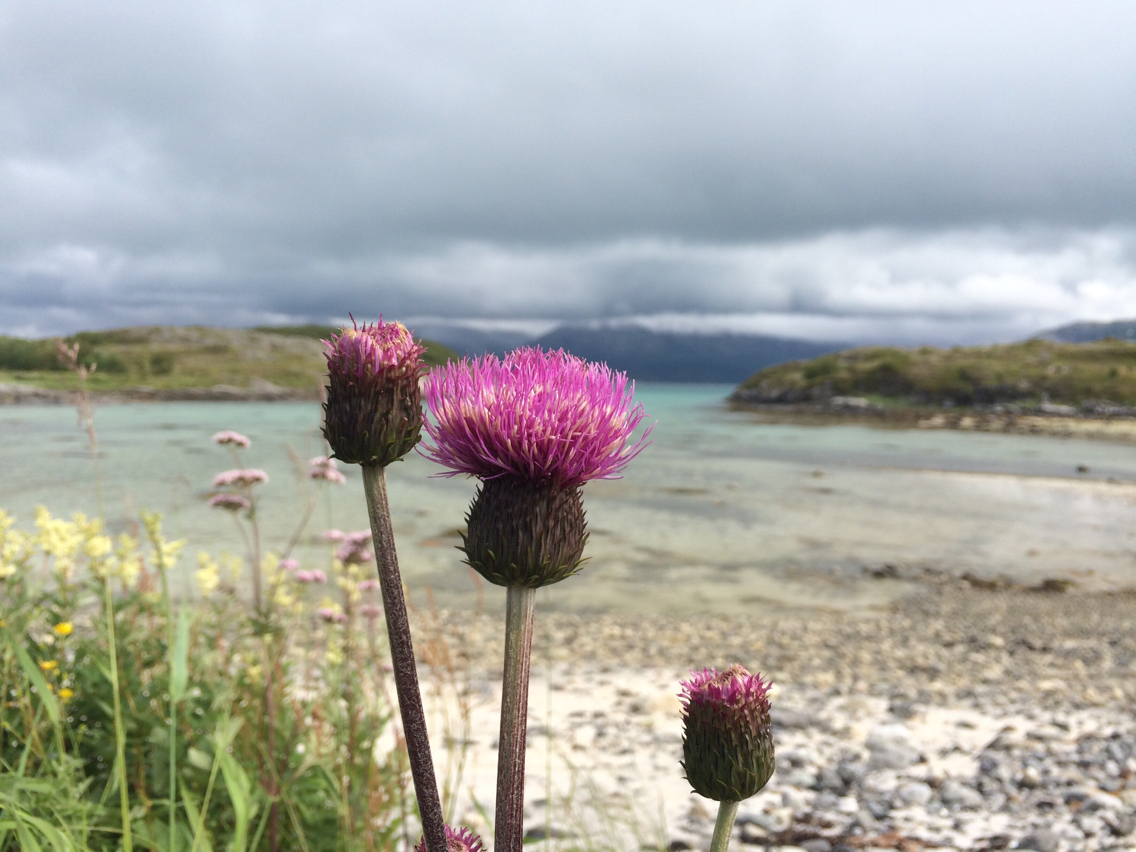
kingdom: Plantae
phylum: Tracheophyta
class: Magnoliopsida
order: Asterales
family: Asteraceae
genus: Cirsium
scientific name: Cirsium heterophyllum
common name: Melancholy thistle
